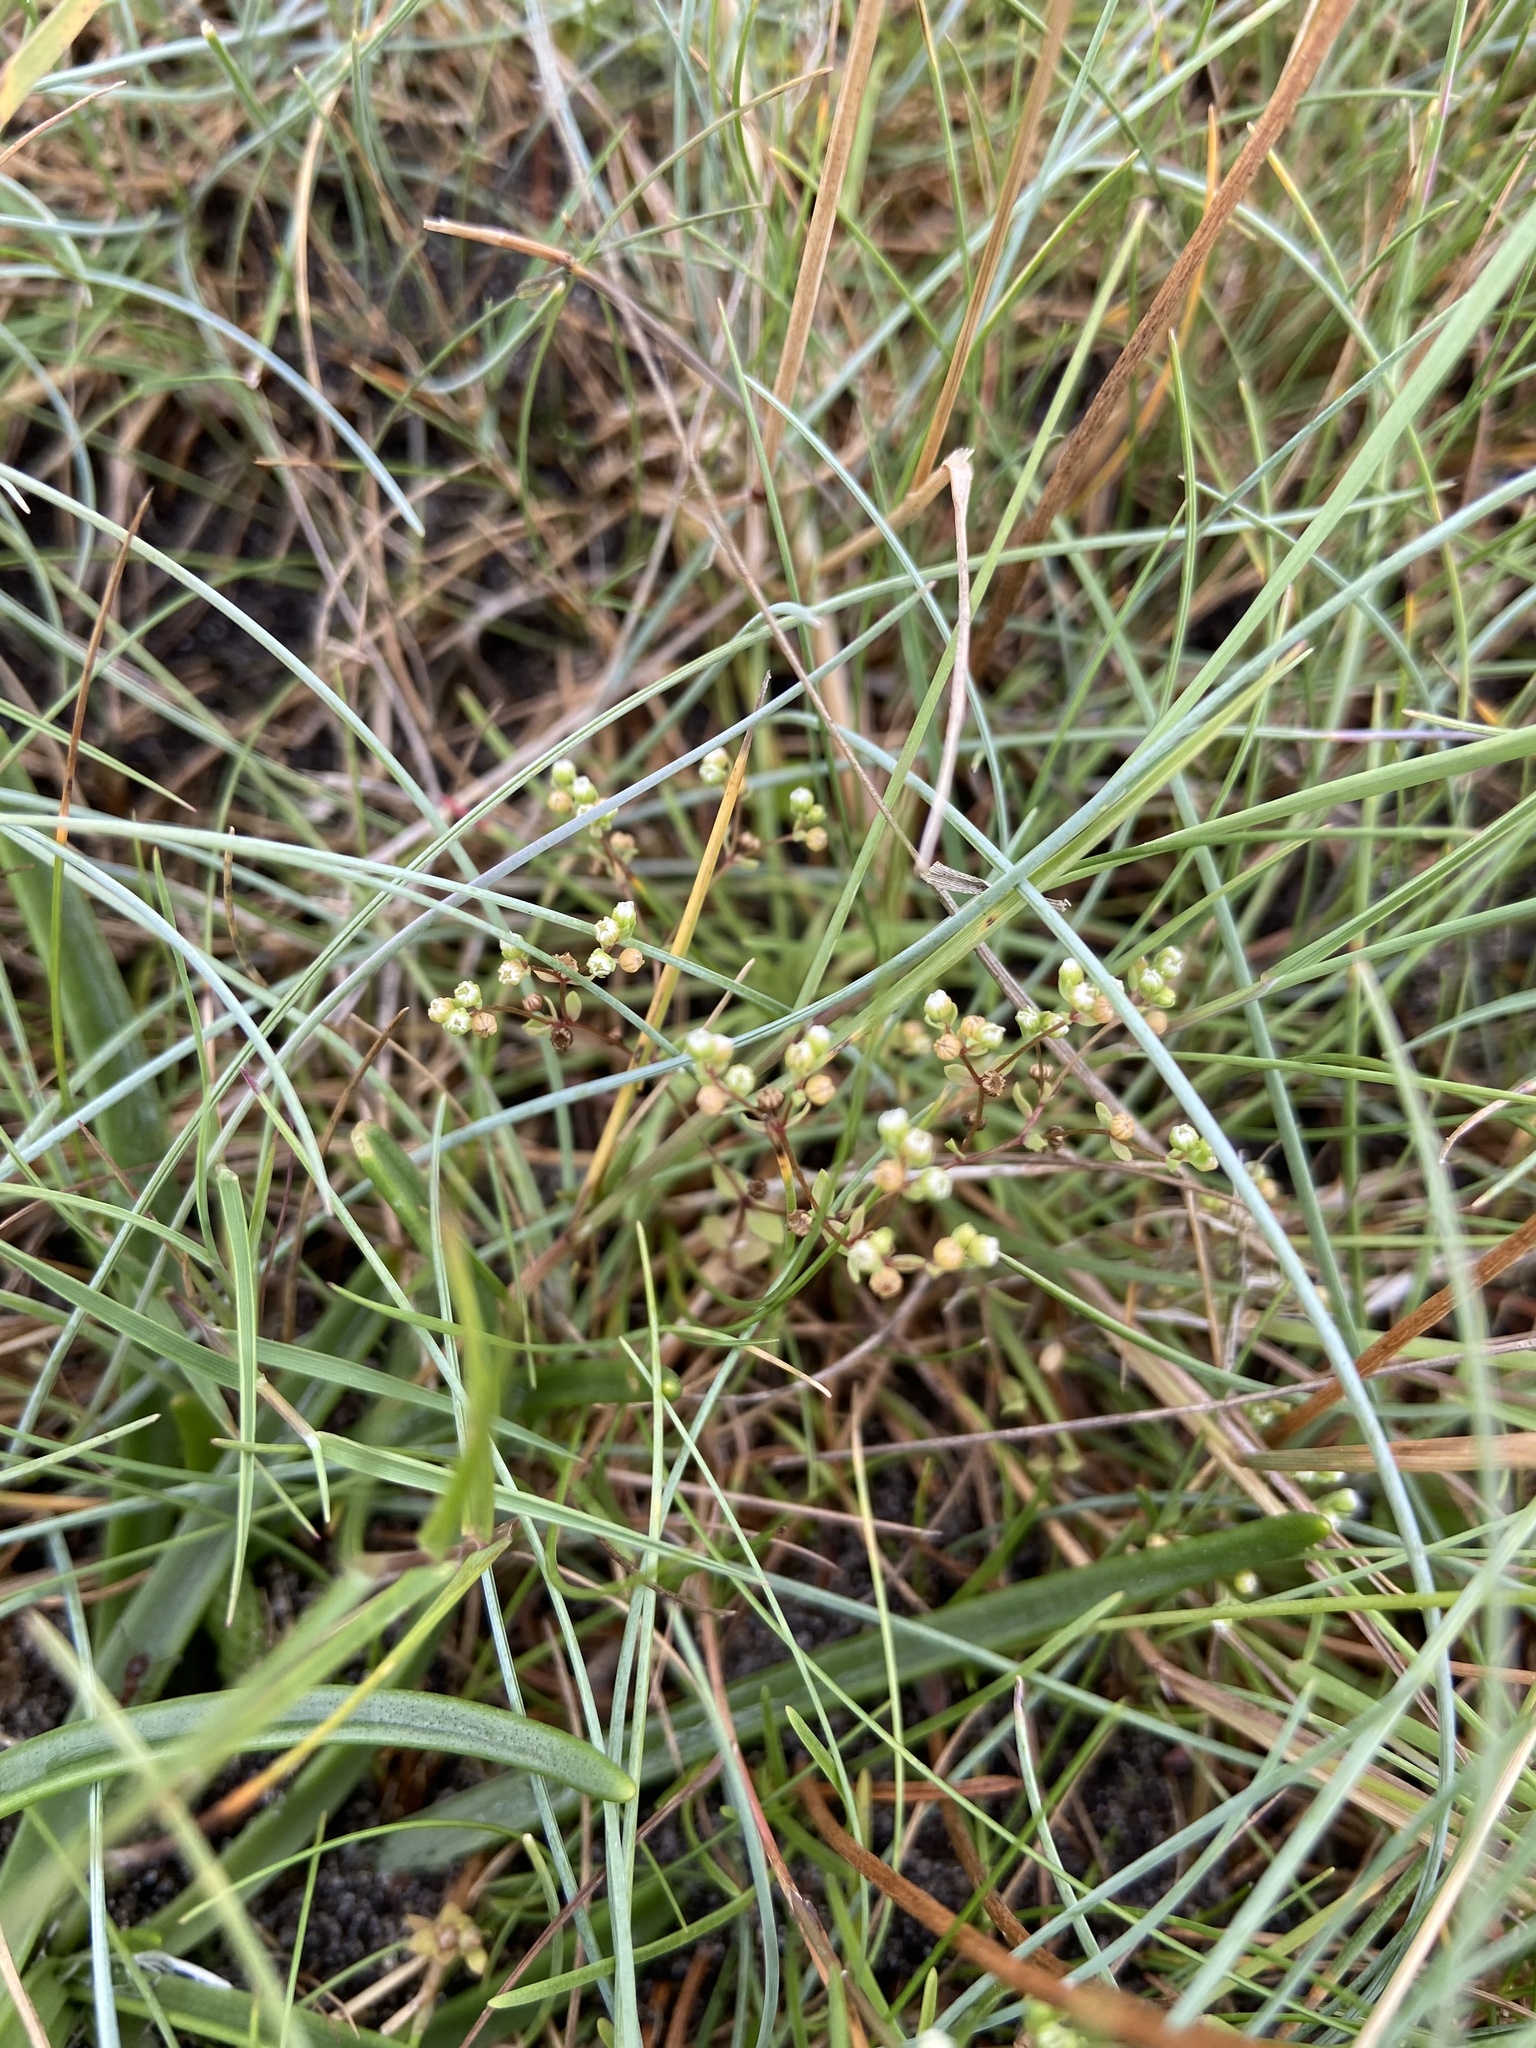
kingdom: Plantae
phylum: Tracheophyta
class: Magnoliopsida
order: Malpighiales
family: Linaceae
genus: Radiola
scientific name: Radiola linoides
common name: Allseed
